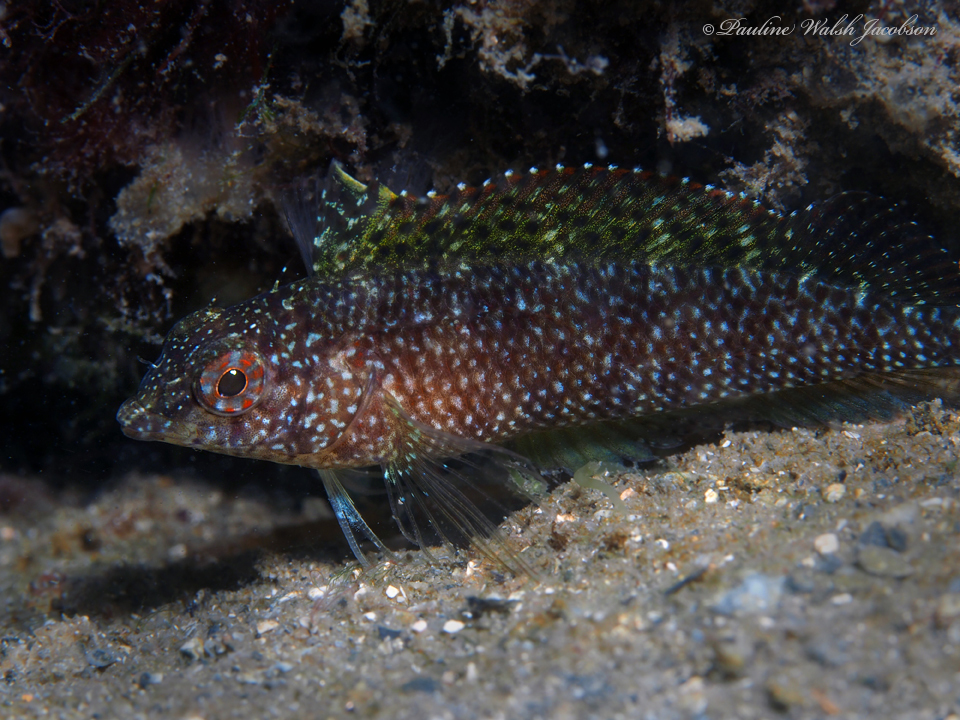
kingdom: Animalia
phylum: Chordata
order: Perciformes
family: Labrisomidae
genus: Malacoctenus
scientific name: Malacoctenus macropus
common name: Rosy blenny
